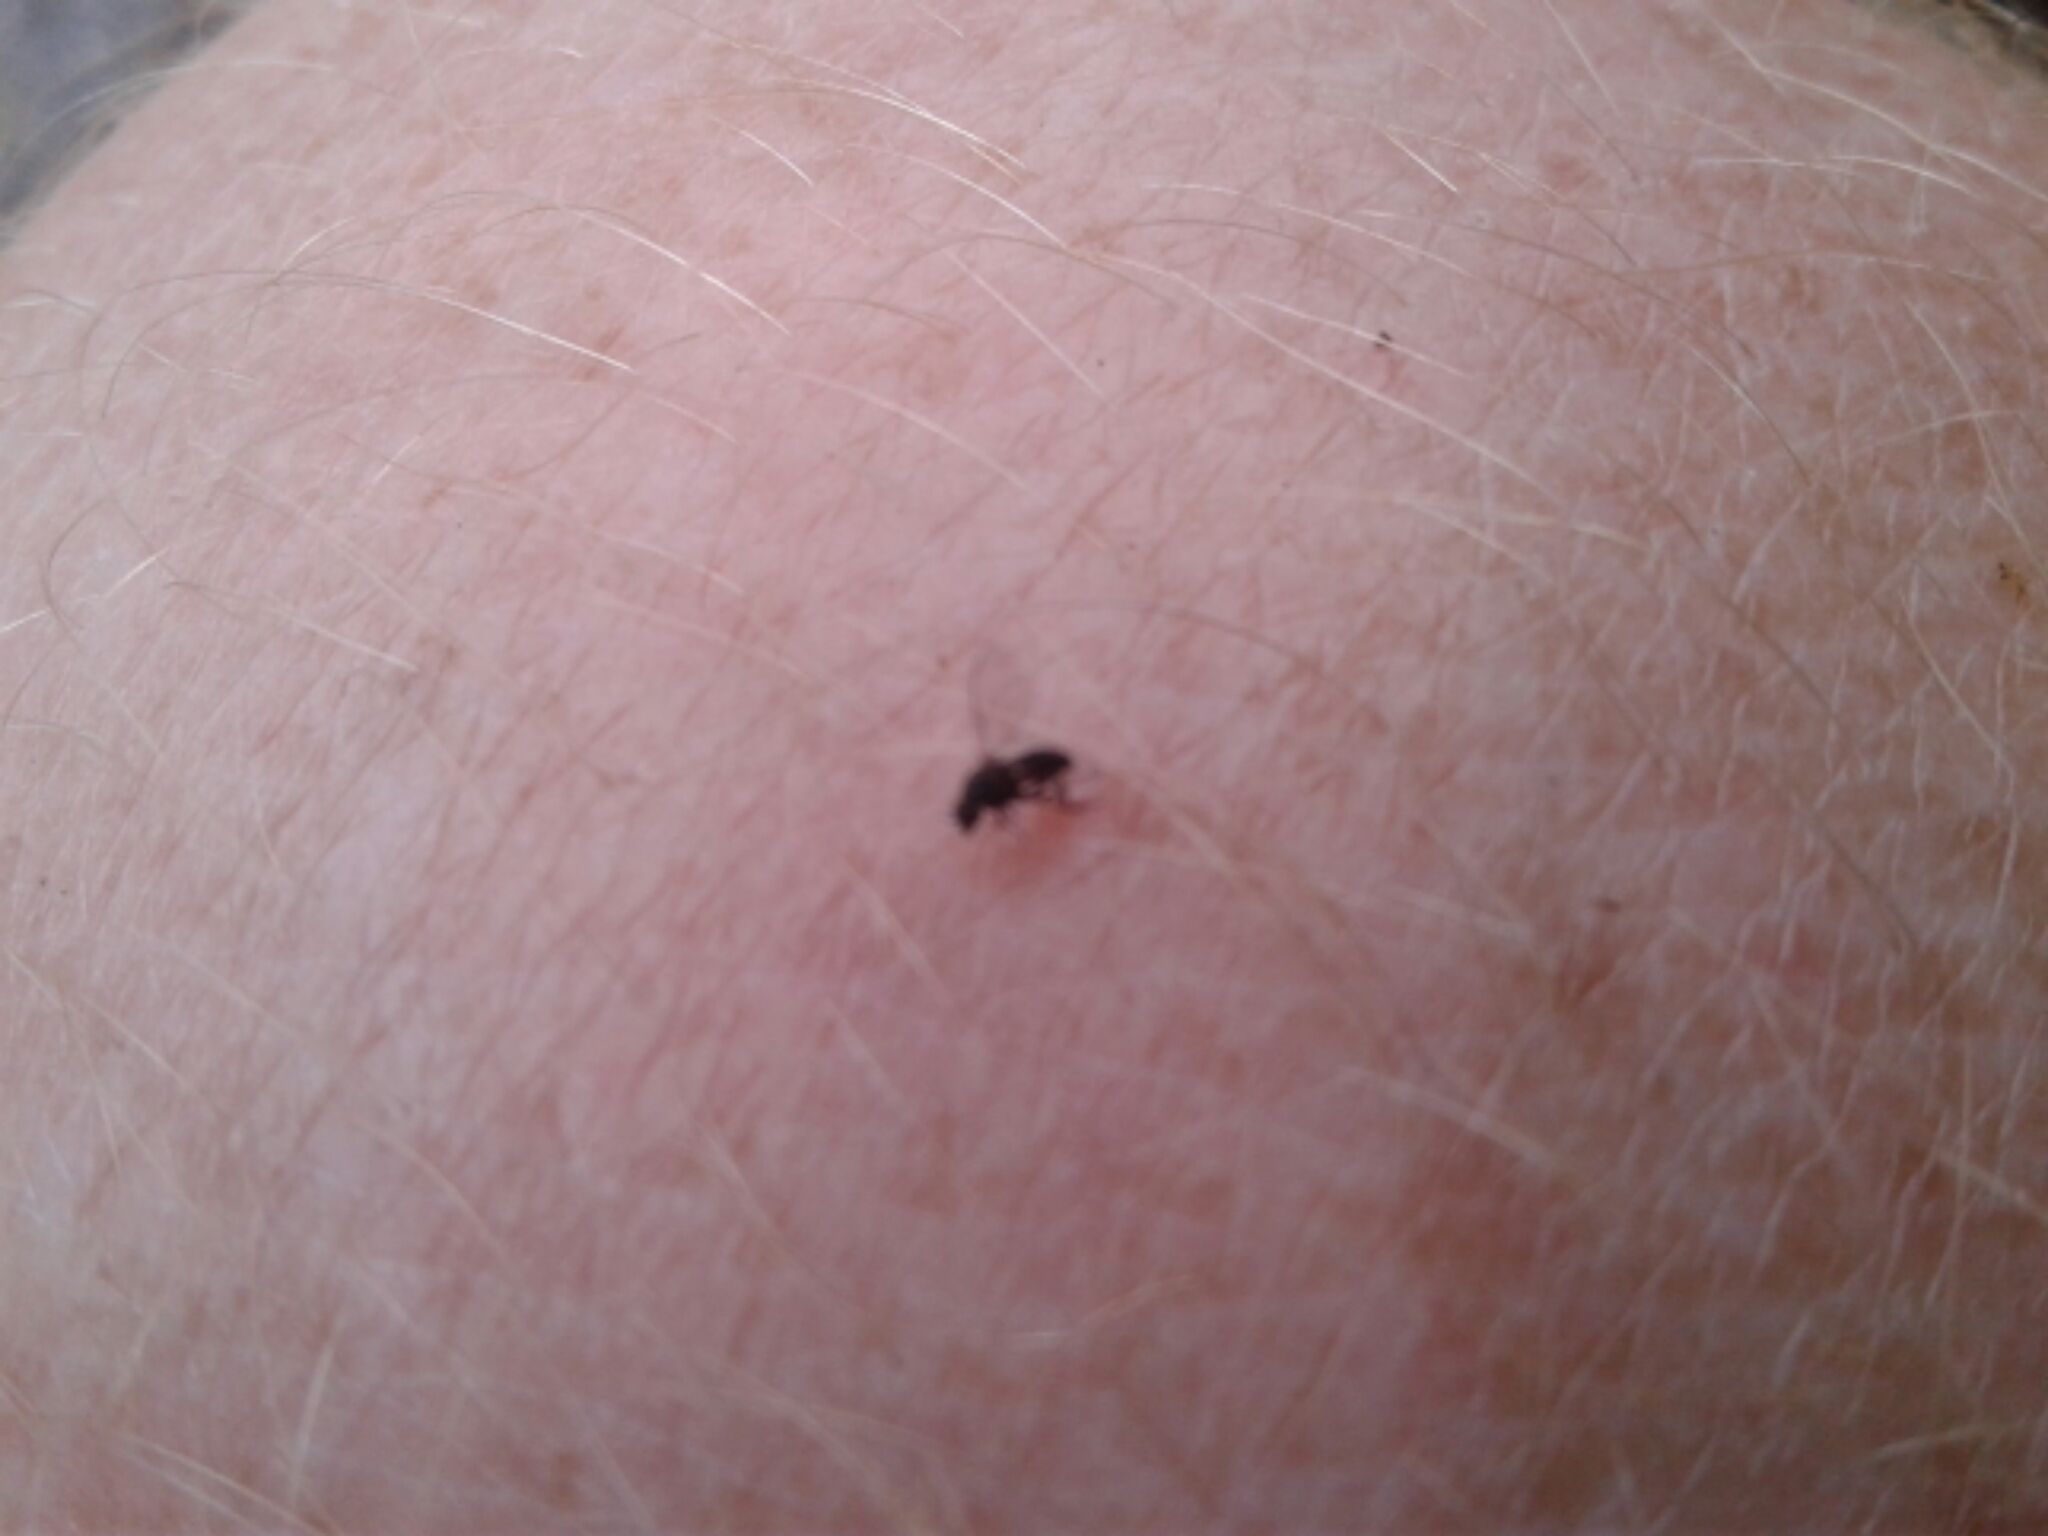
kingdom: Animalia
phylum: Arthropoda
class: Insecta
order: Diptera
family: Simuliidae
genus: Austrosimulium
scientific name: Austrosimulium
